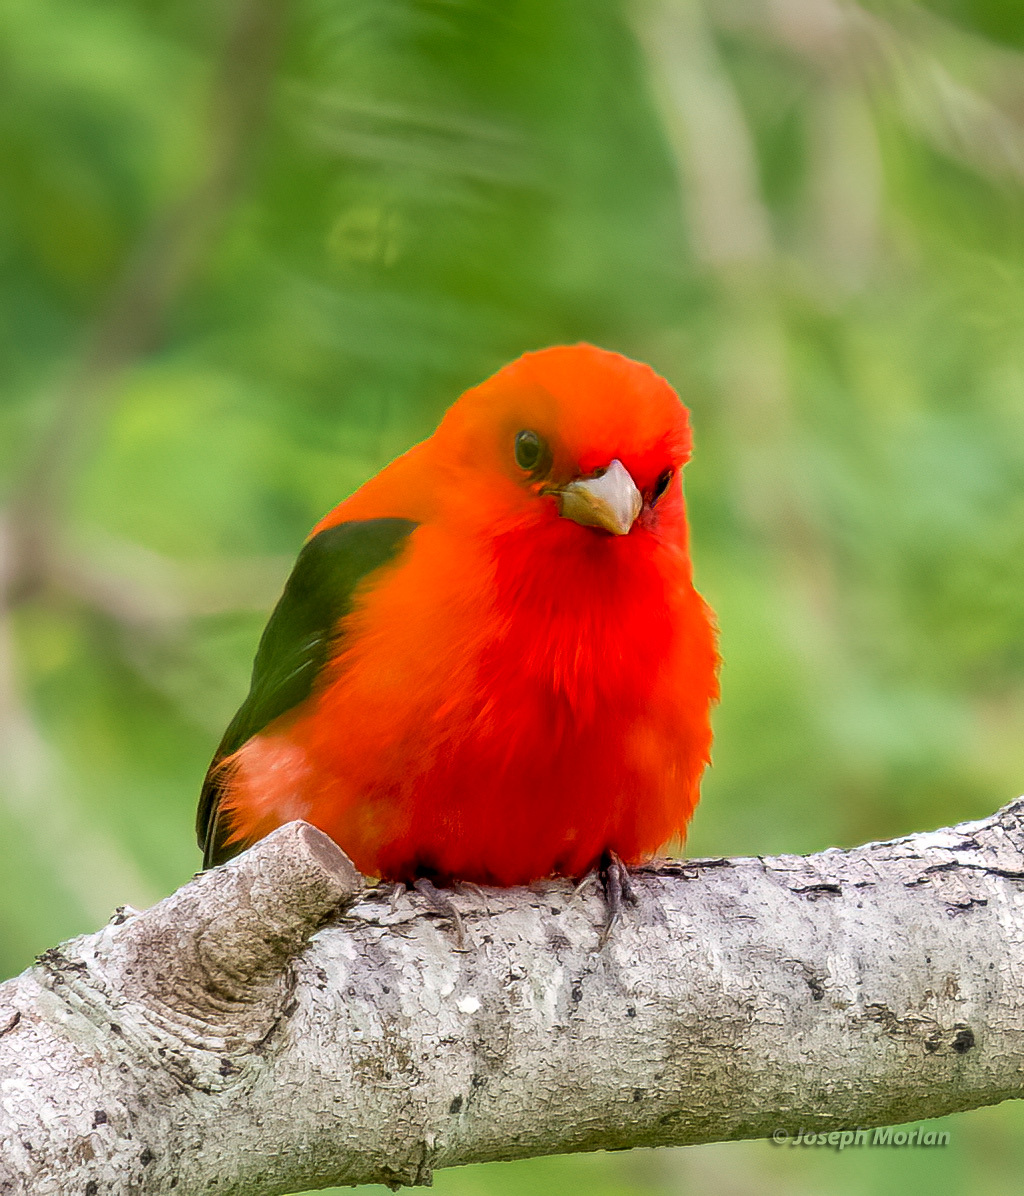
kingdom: Animalia
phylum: Chordata
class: Aves
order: Passeriformes
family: Cardinalidae
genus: Piranga
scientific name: Piranga olivacea
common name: Scarlet tanager
